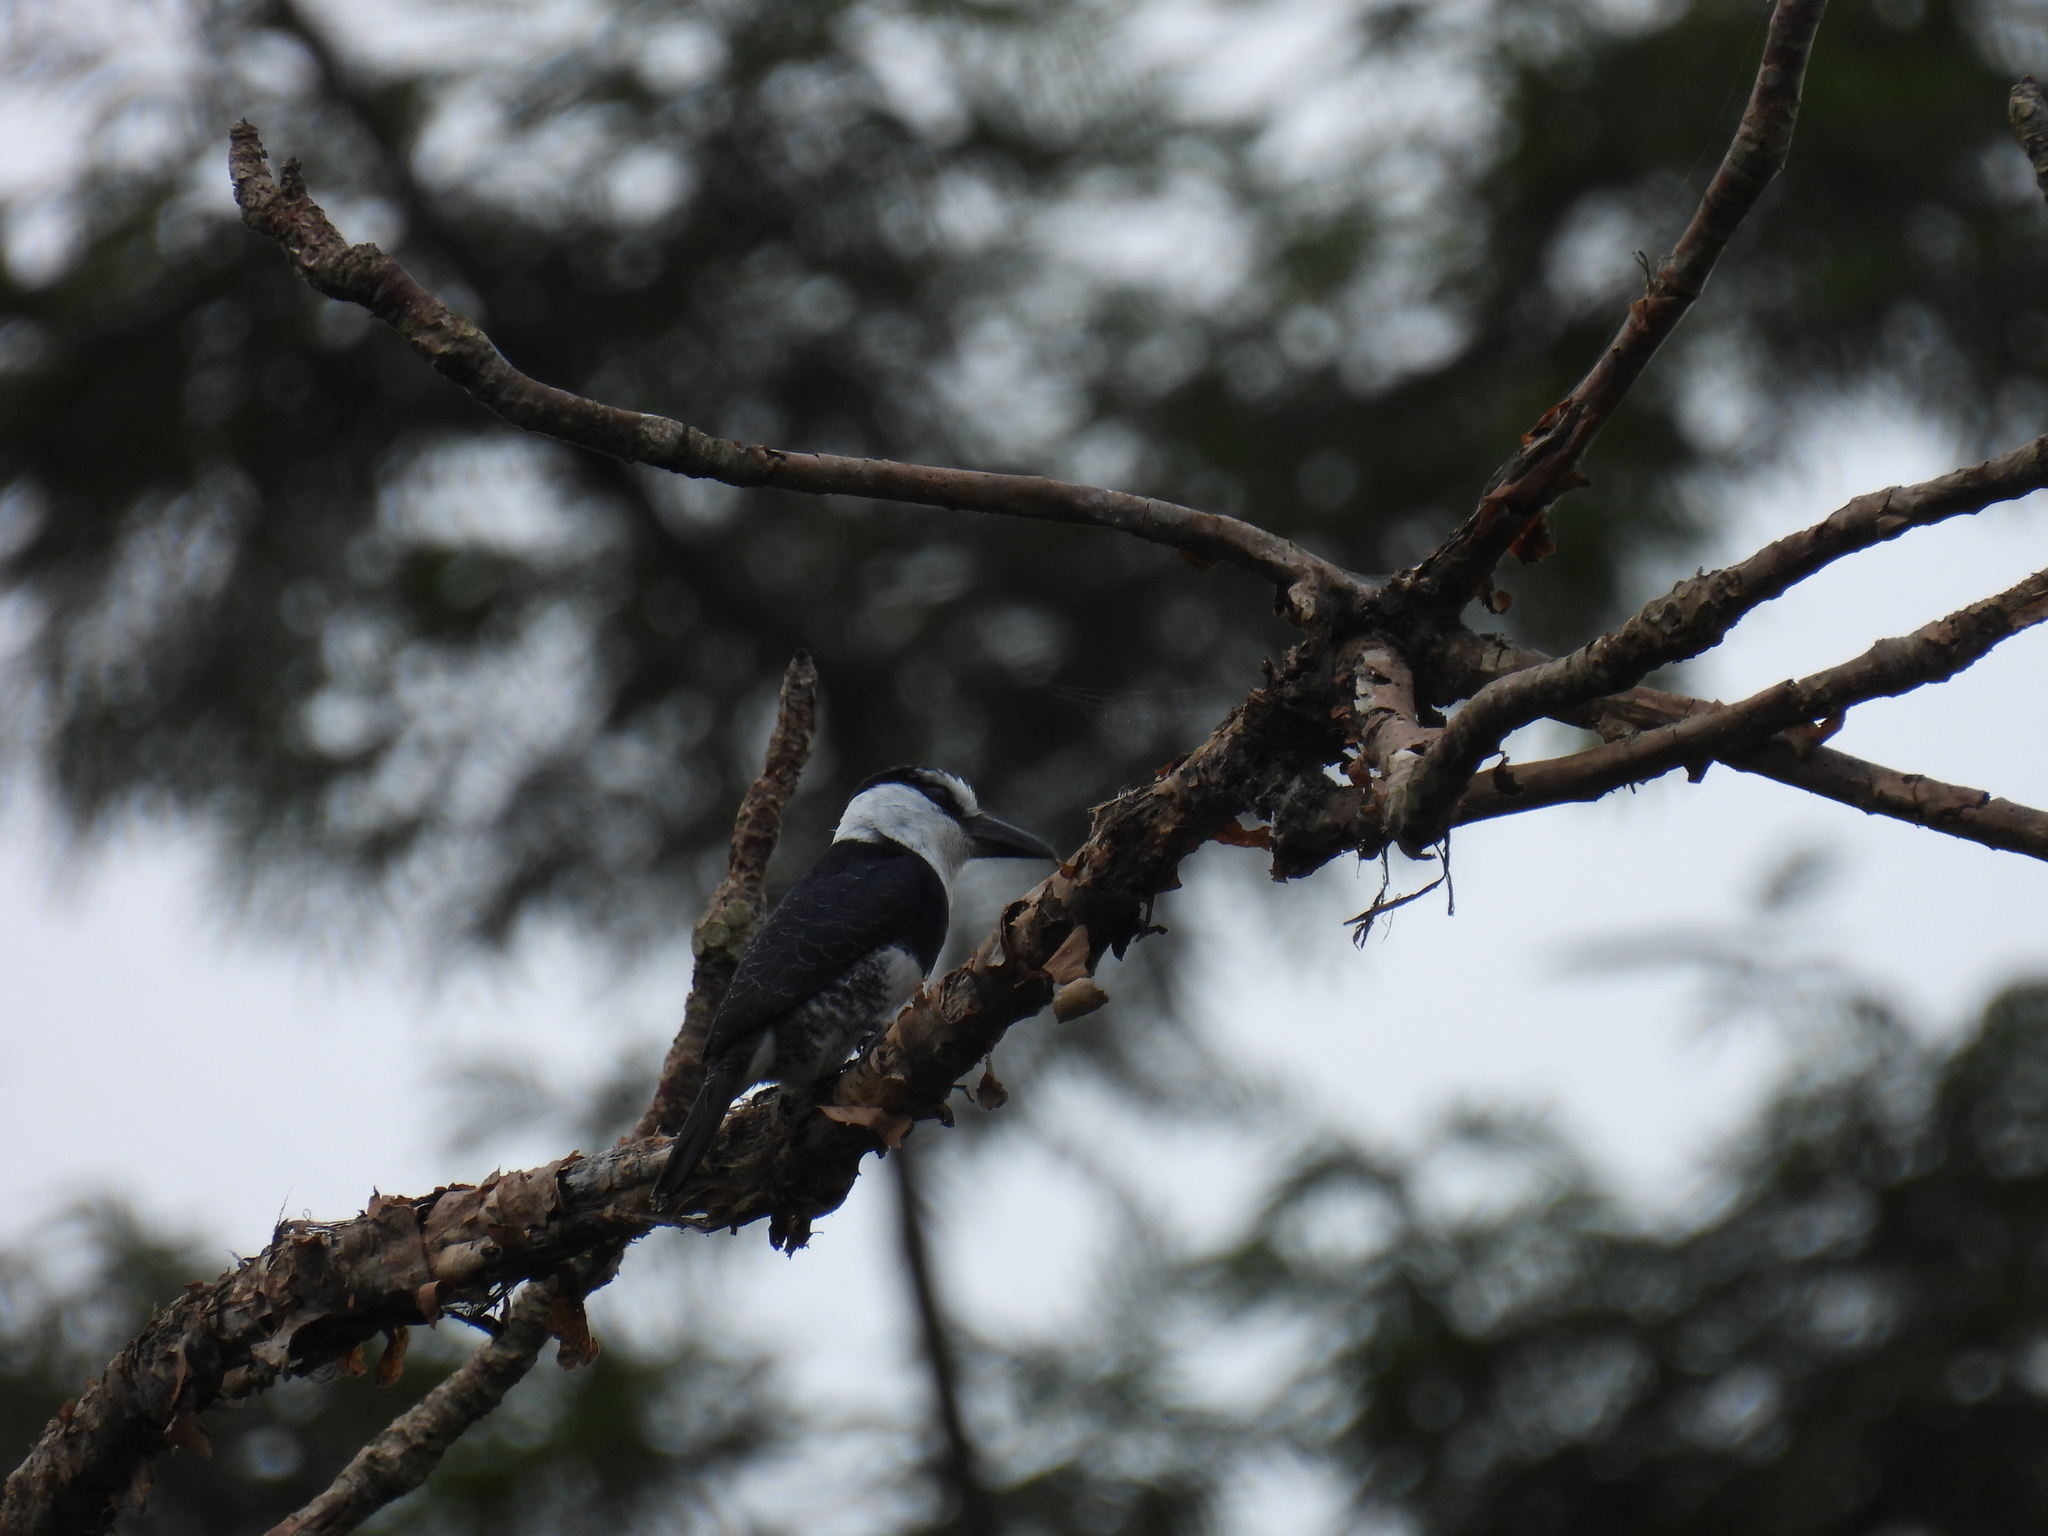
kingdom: Animalia
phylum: Chordata
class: Aves
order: Piciformes
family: Bucconidae
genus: Notharchus
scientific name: Notharchus hyperrhynchus
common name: White-necked puffbird
